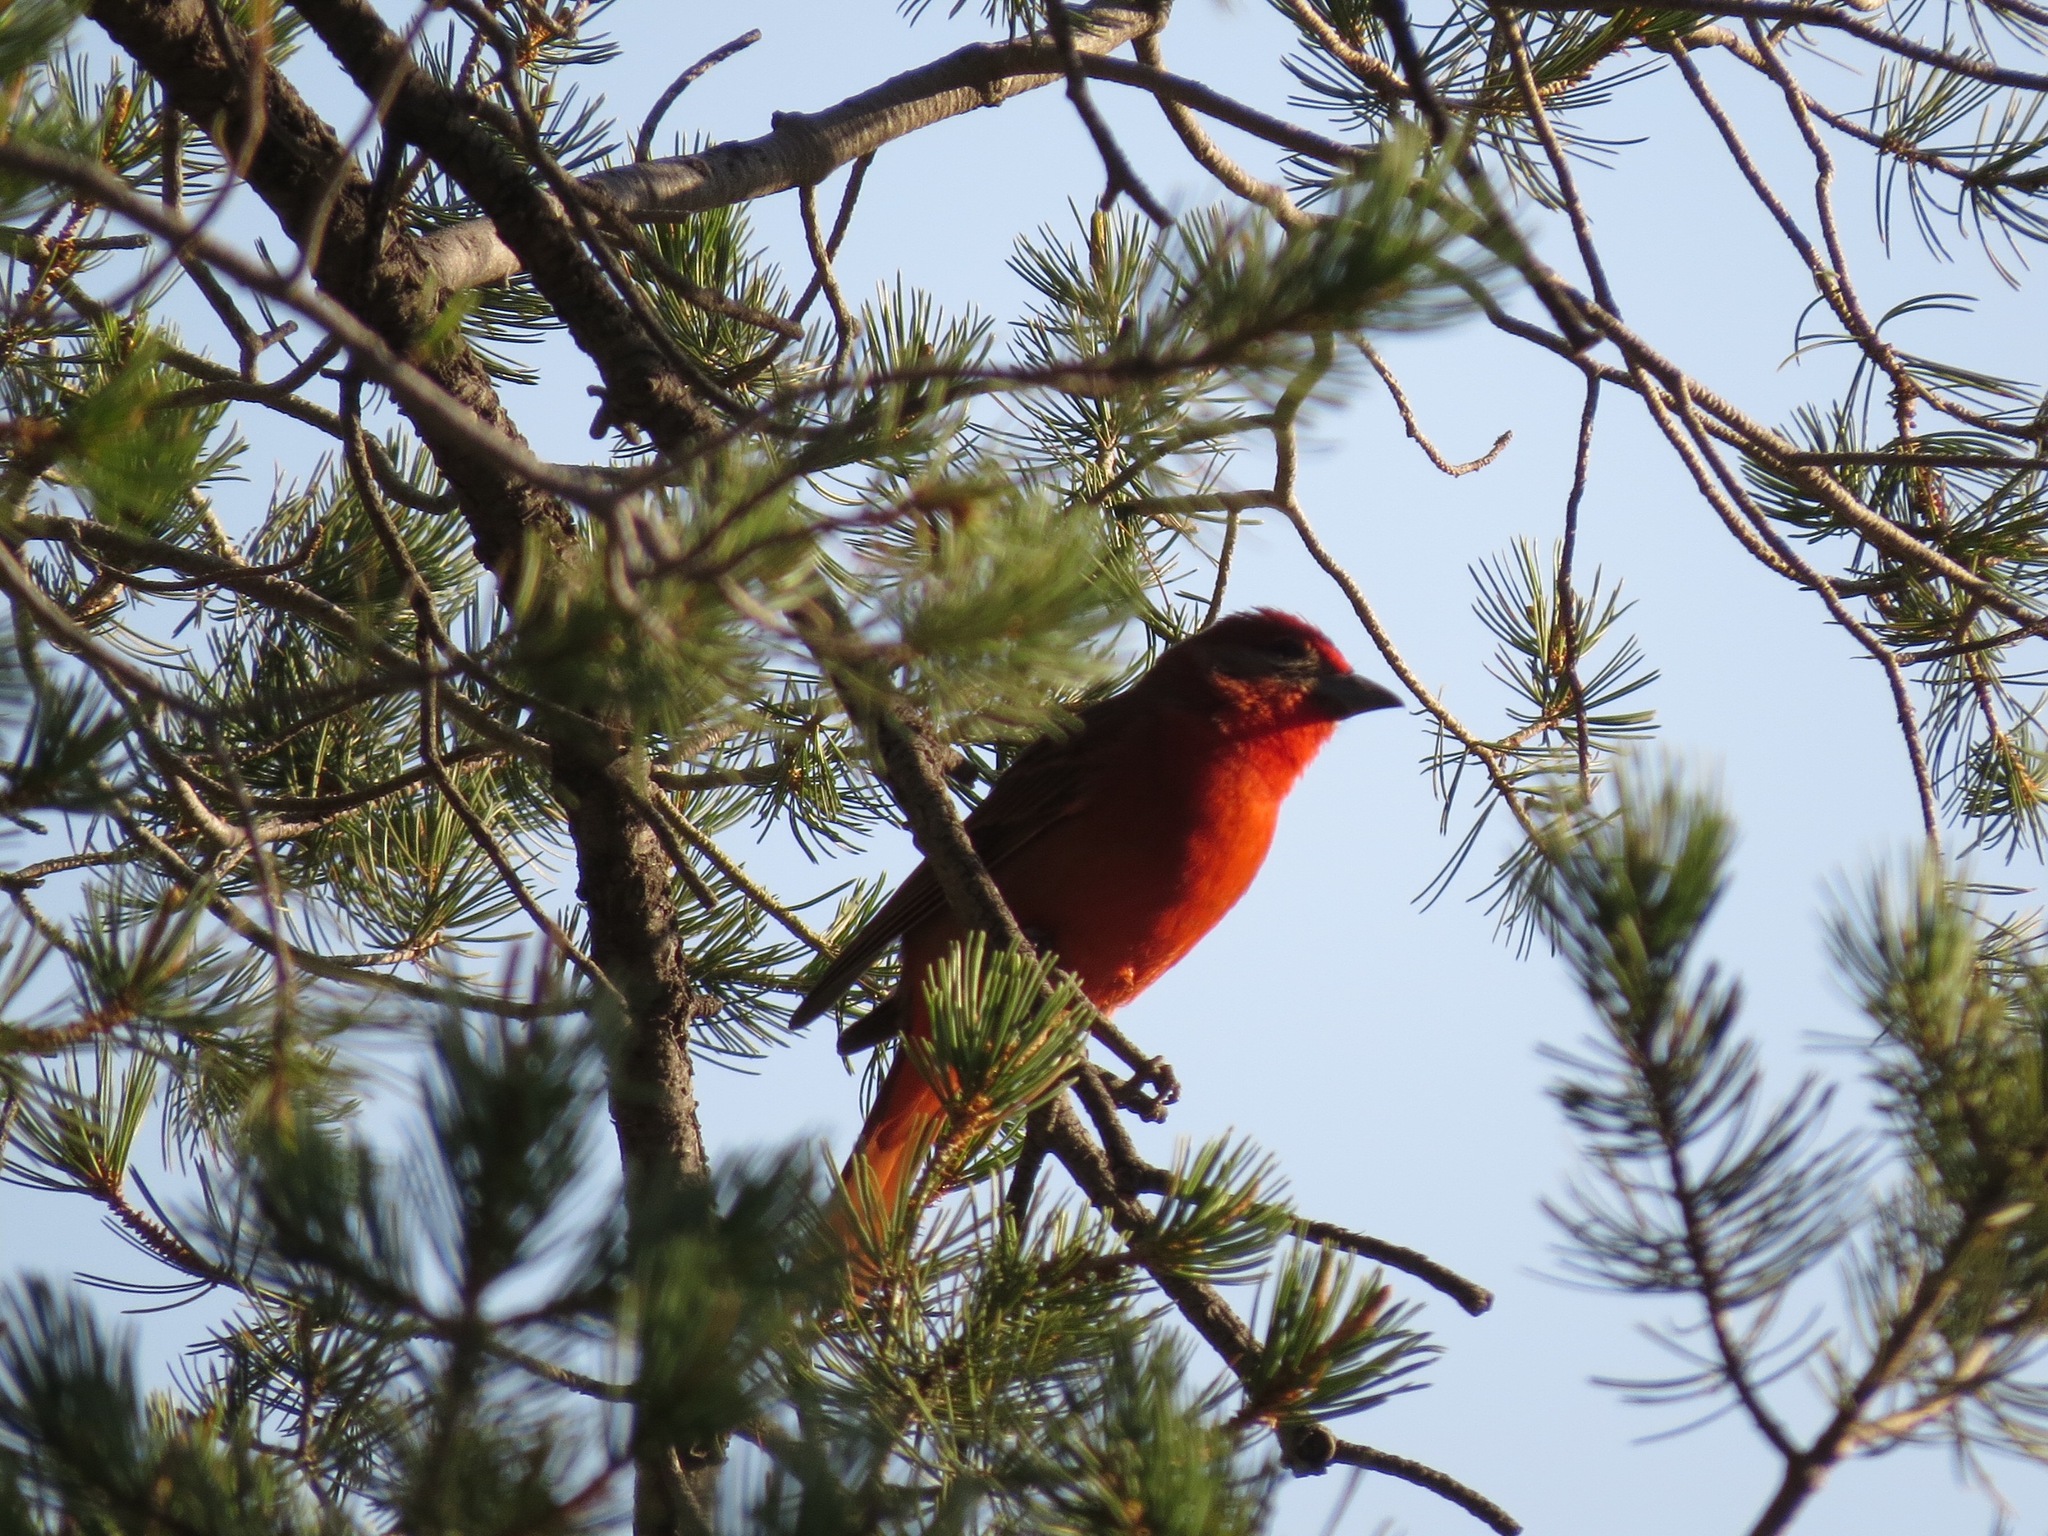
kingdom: Animalia
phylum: Chordata
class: Aves
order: Passeriformes
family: Cardinalidae
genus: Piranga
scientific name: Piranga flava
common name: Red tanager
